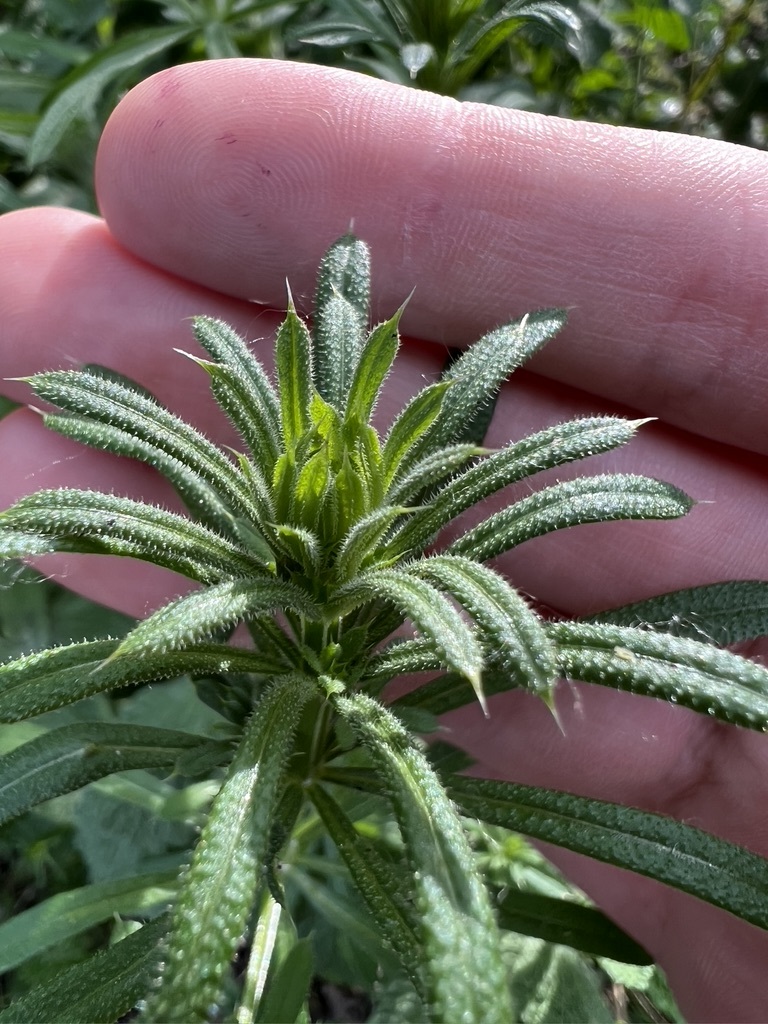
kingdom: Plantae
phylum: Tracheophyta
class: Magnoliopsida
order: Gentianales
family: Rubiaceae
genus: Galium
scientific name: Galium aparine
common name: Cleavers
